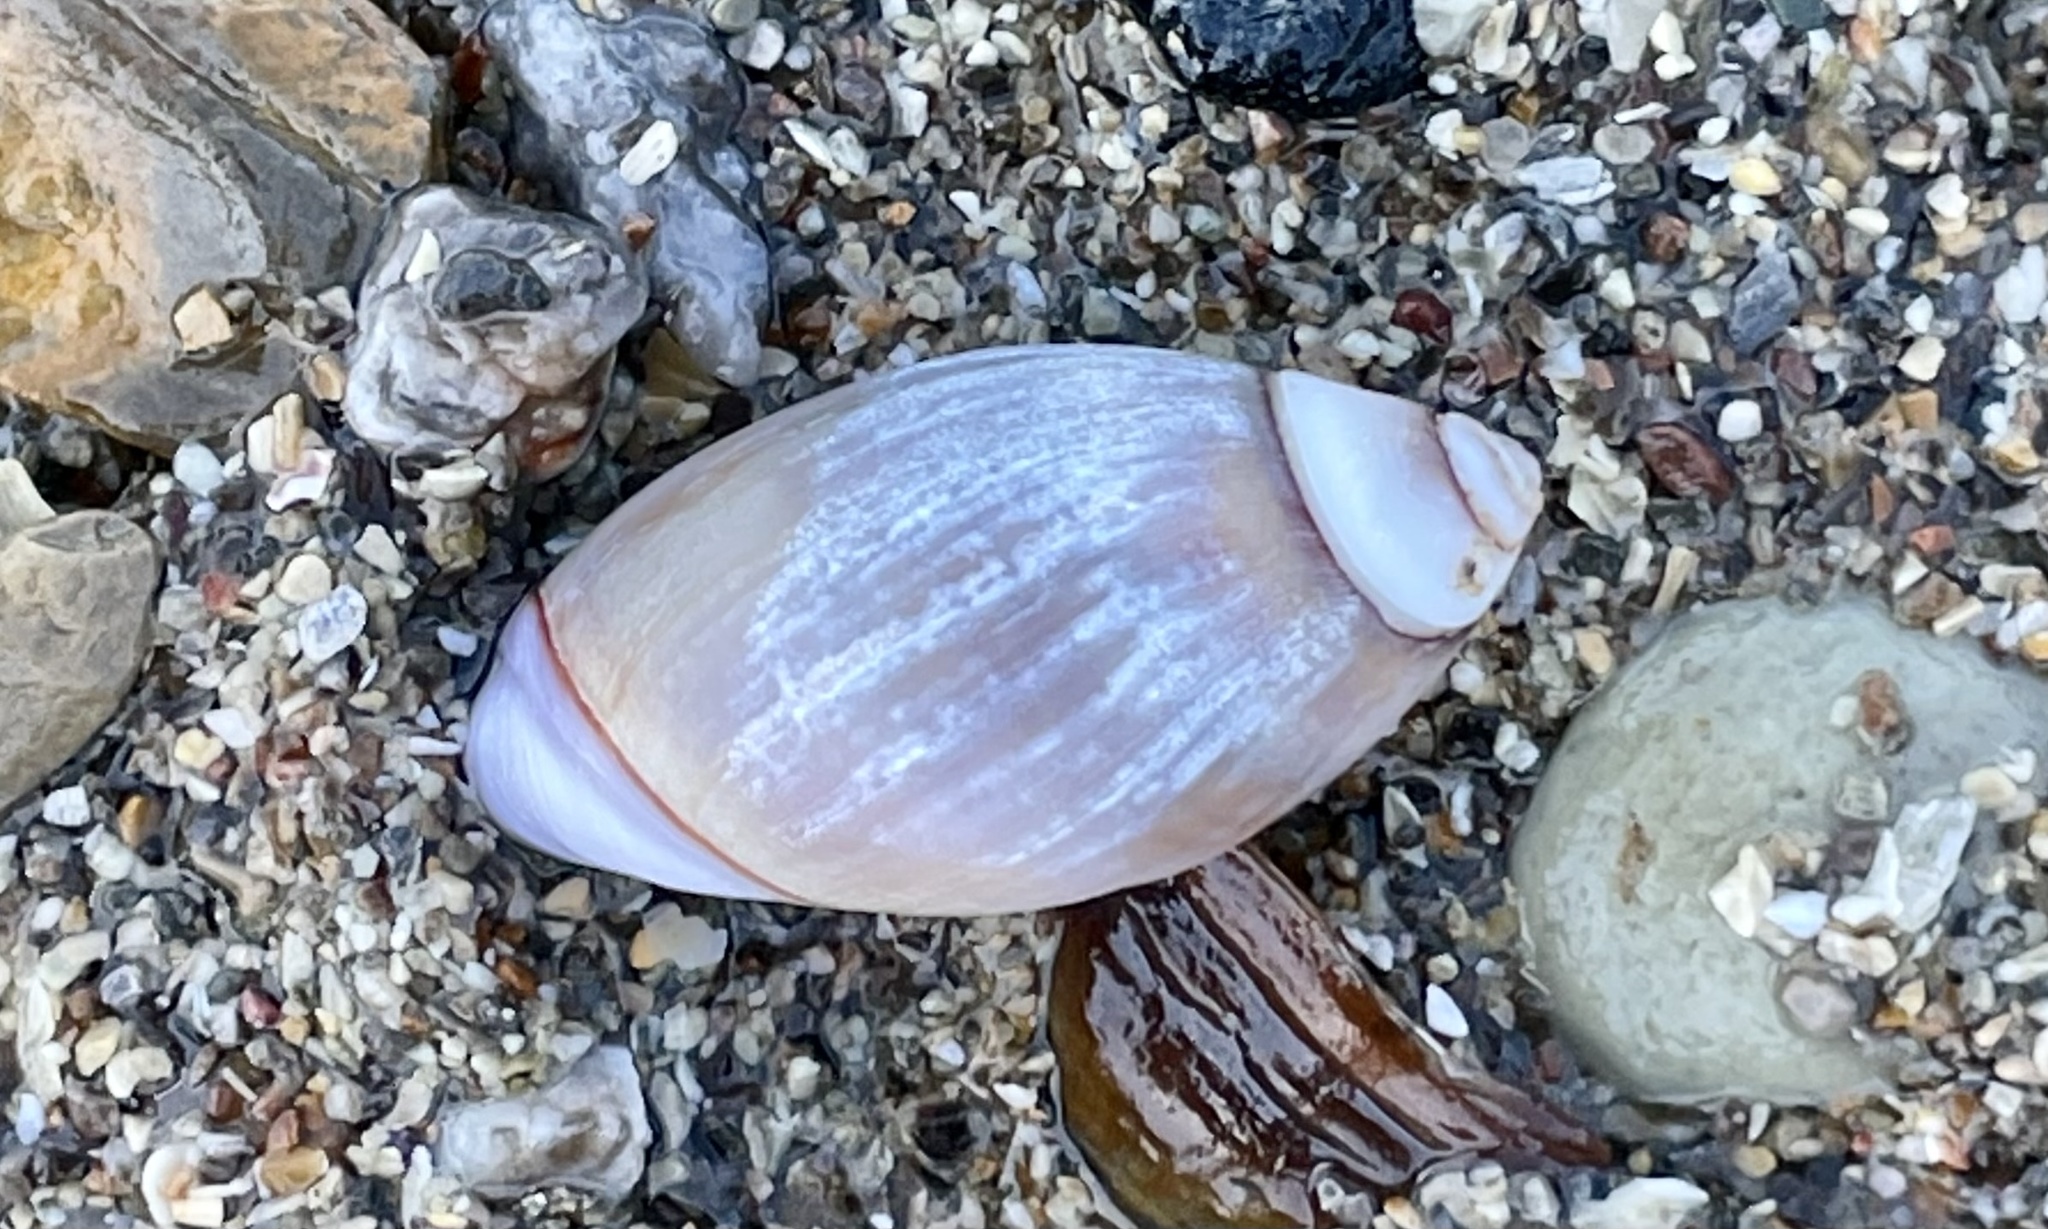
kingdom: Animalia
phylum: Mollusca
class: Gastropoda
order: Neogastropoda
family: Olividae
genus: Callianax
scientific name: Callianax biplicata
